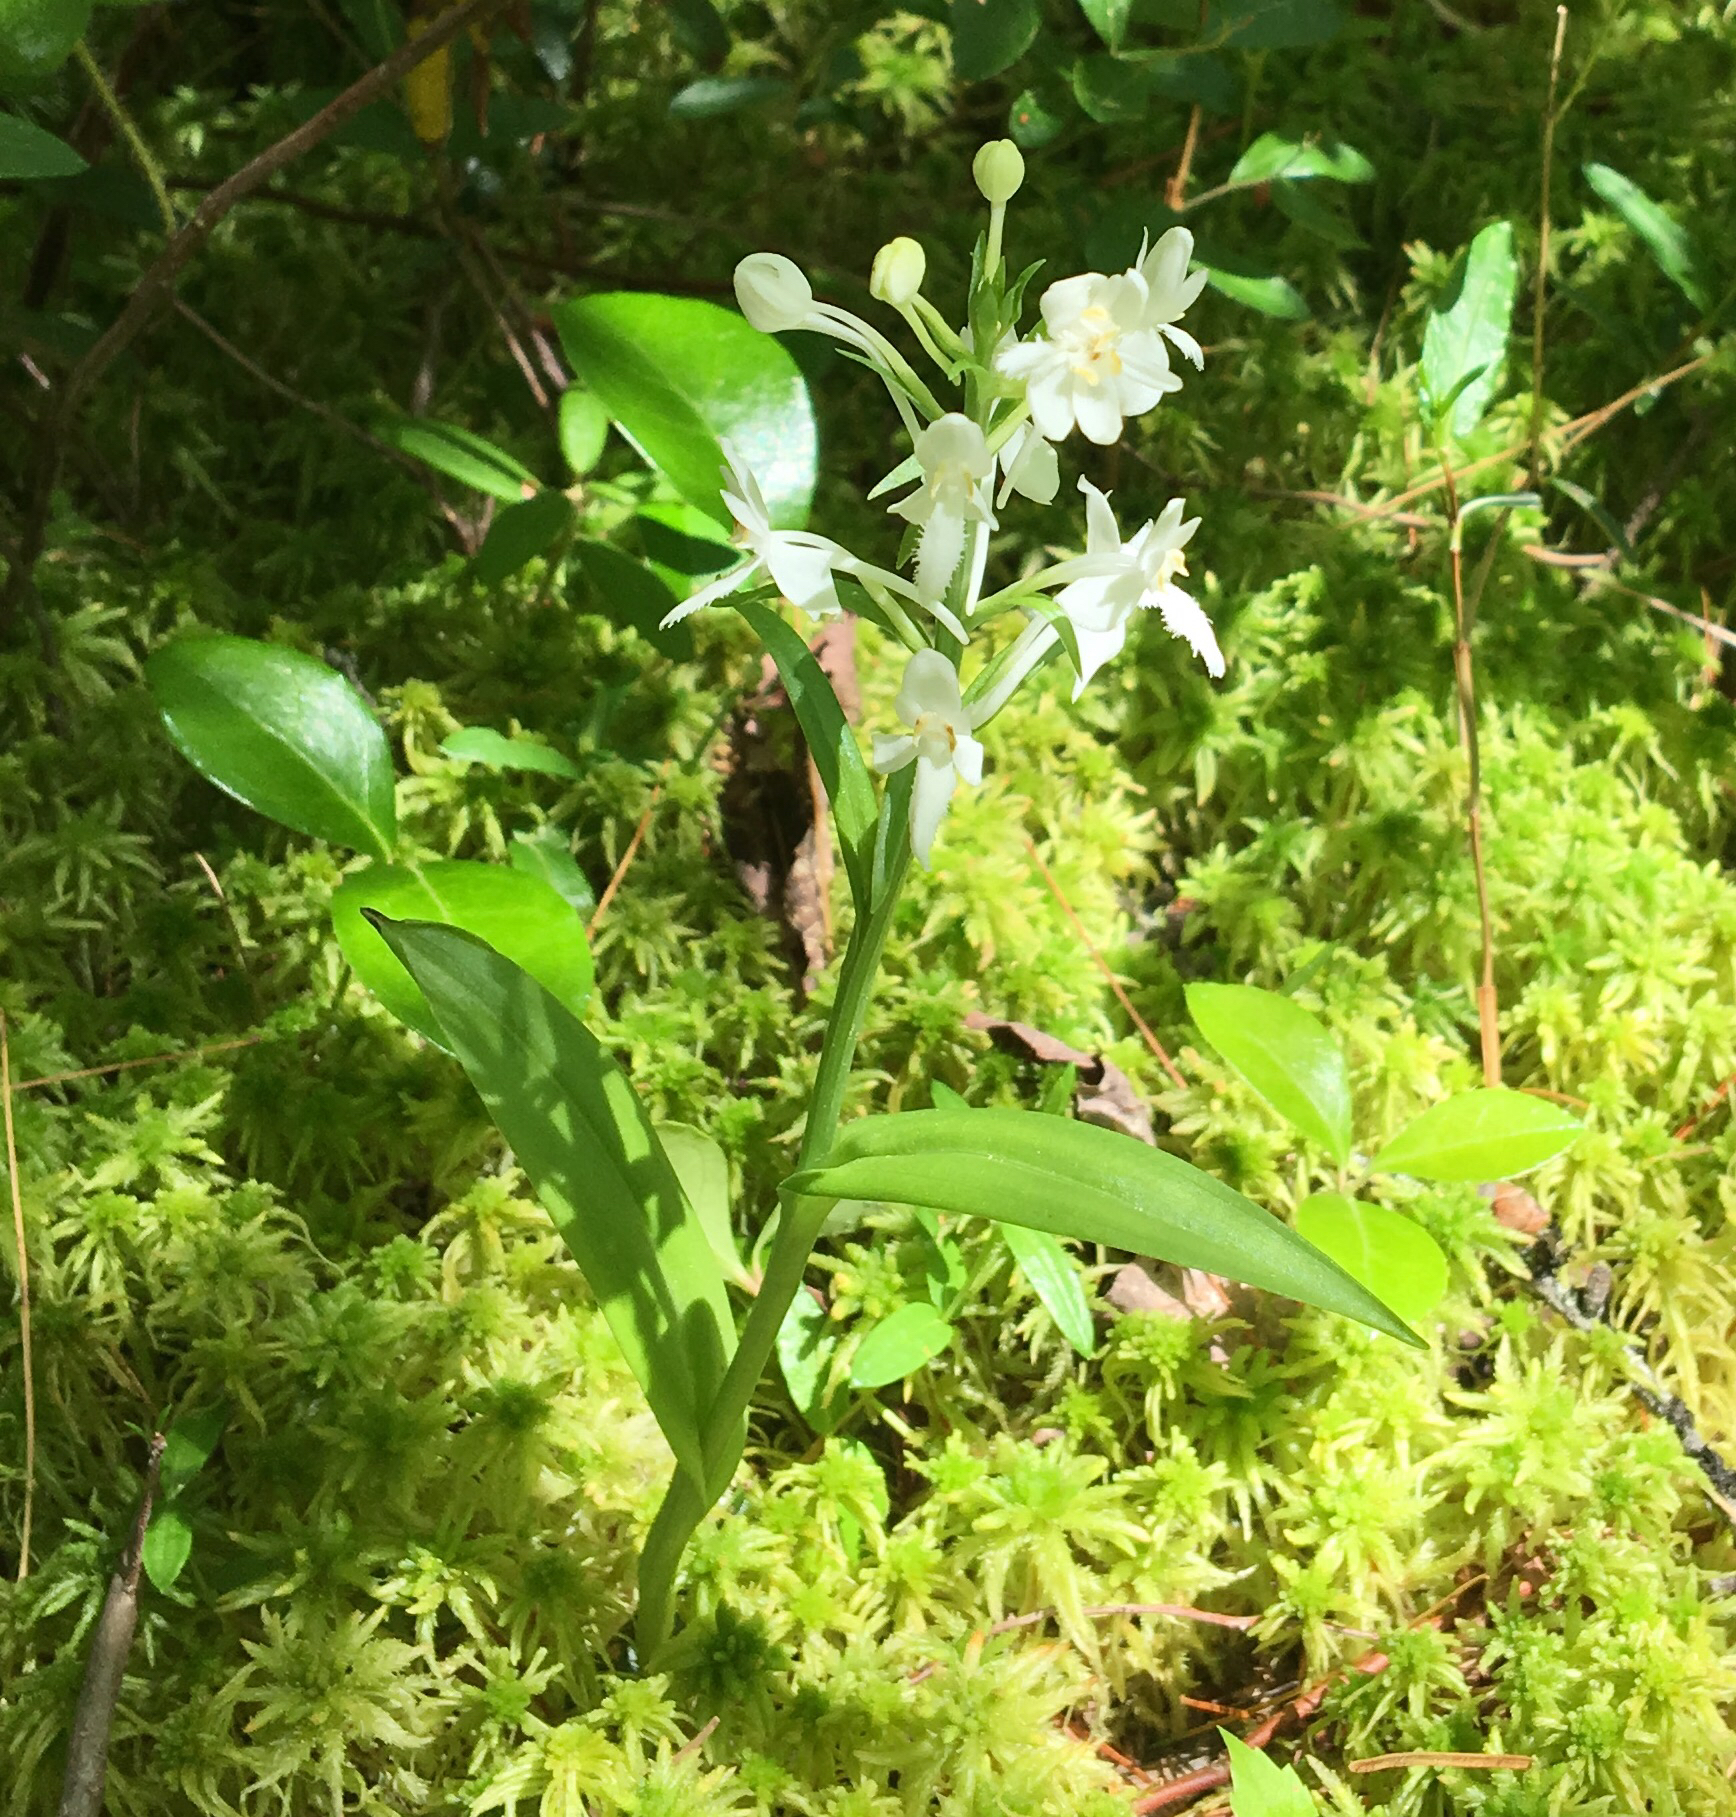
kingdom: Plantae
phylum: Tracheophyta
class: Liliopsida
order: Asparagales
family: Orchidaceae
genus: Platanthera
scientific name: Platanthera blephariglottis
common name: White fringed orchid
